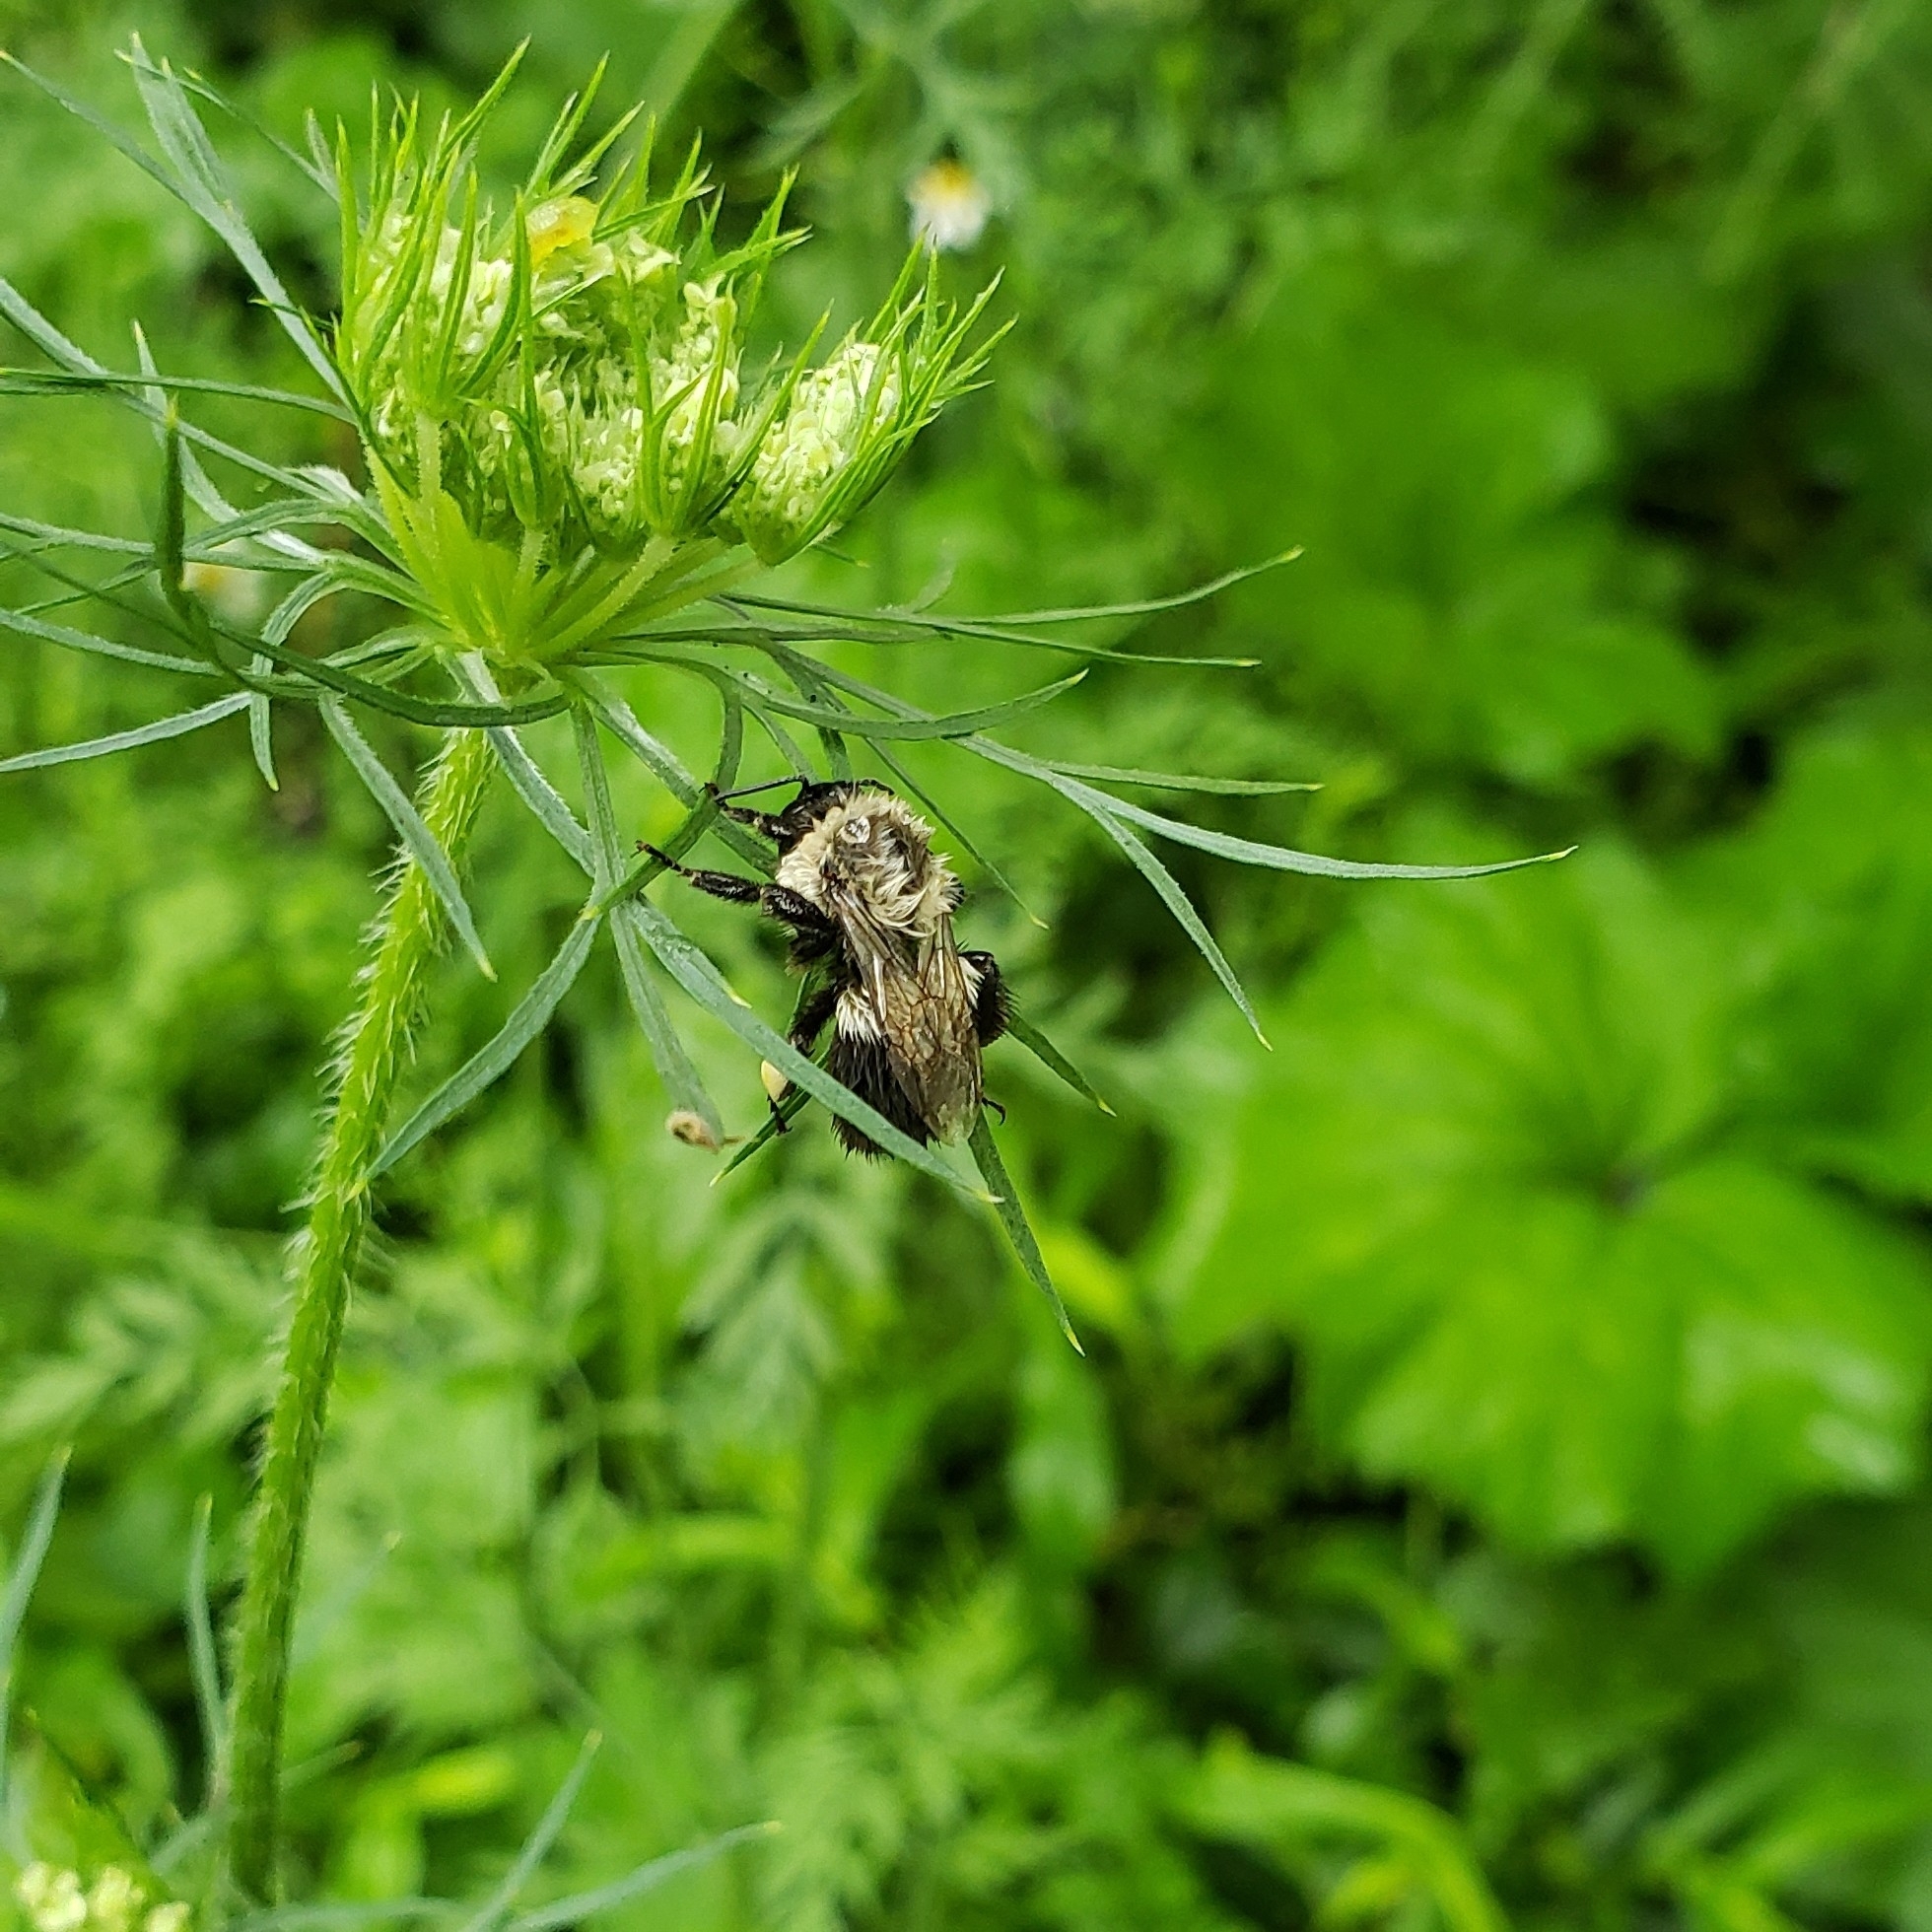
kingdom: Animalia
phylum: Arthropoda
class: Insecta
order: Hymenoptera
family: Apidae
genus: Bombus
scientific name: Bombus impatiens
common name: Common eastern bumble bee
